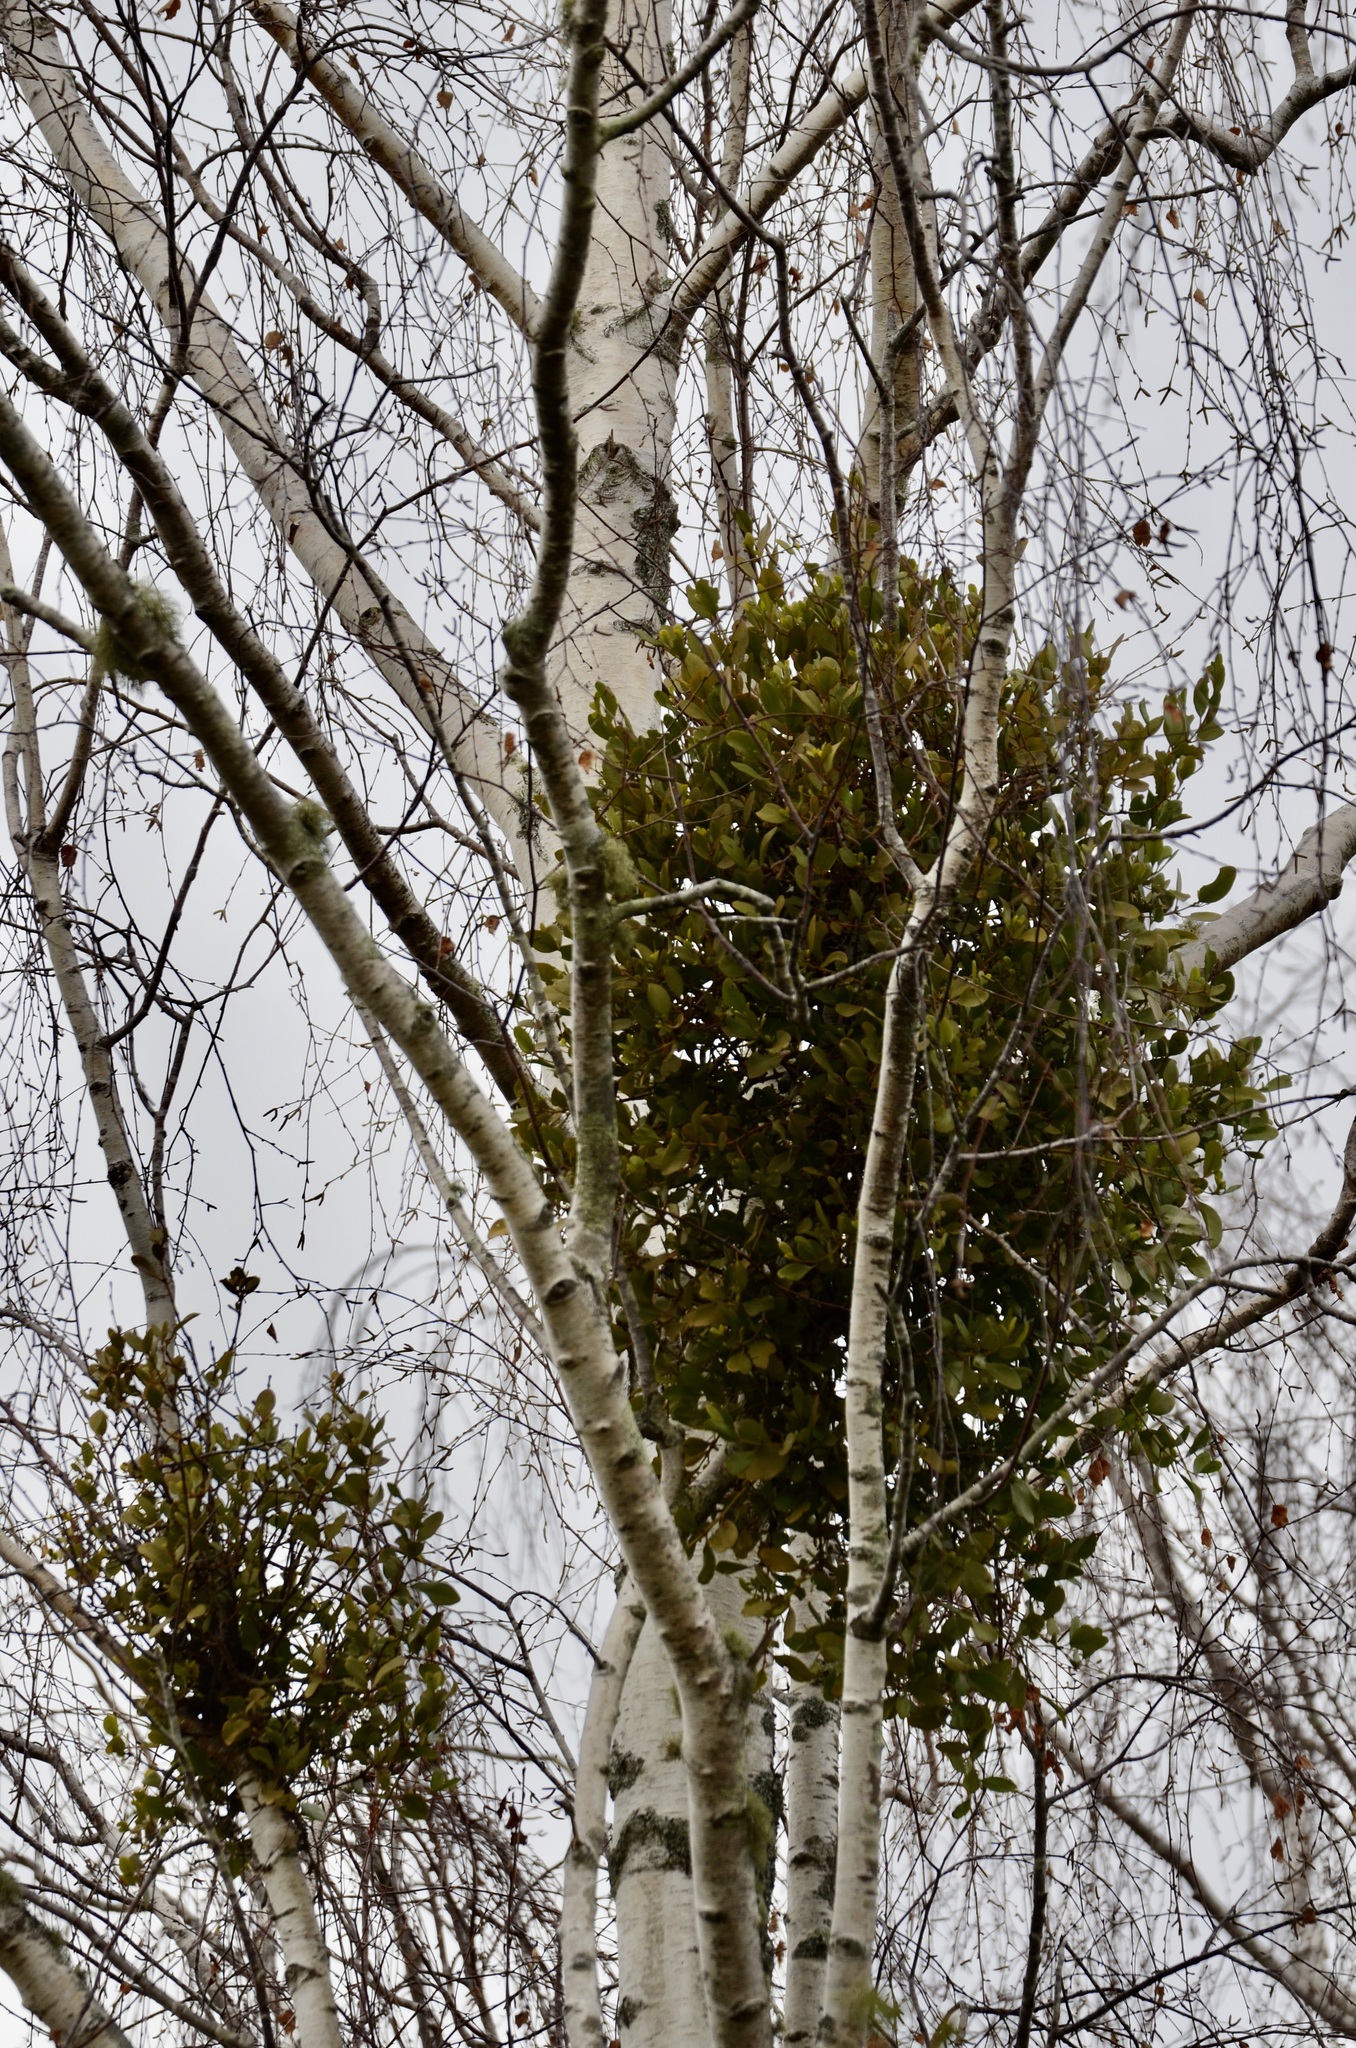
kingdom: Plantae
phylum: Tracheophyta
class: Magnoliopsida
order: Santalales
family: Loranthaceae
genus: Ileostylus
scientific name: Ileostylus micranthus
